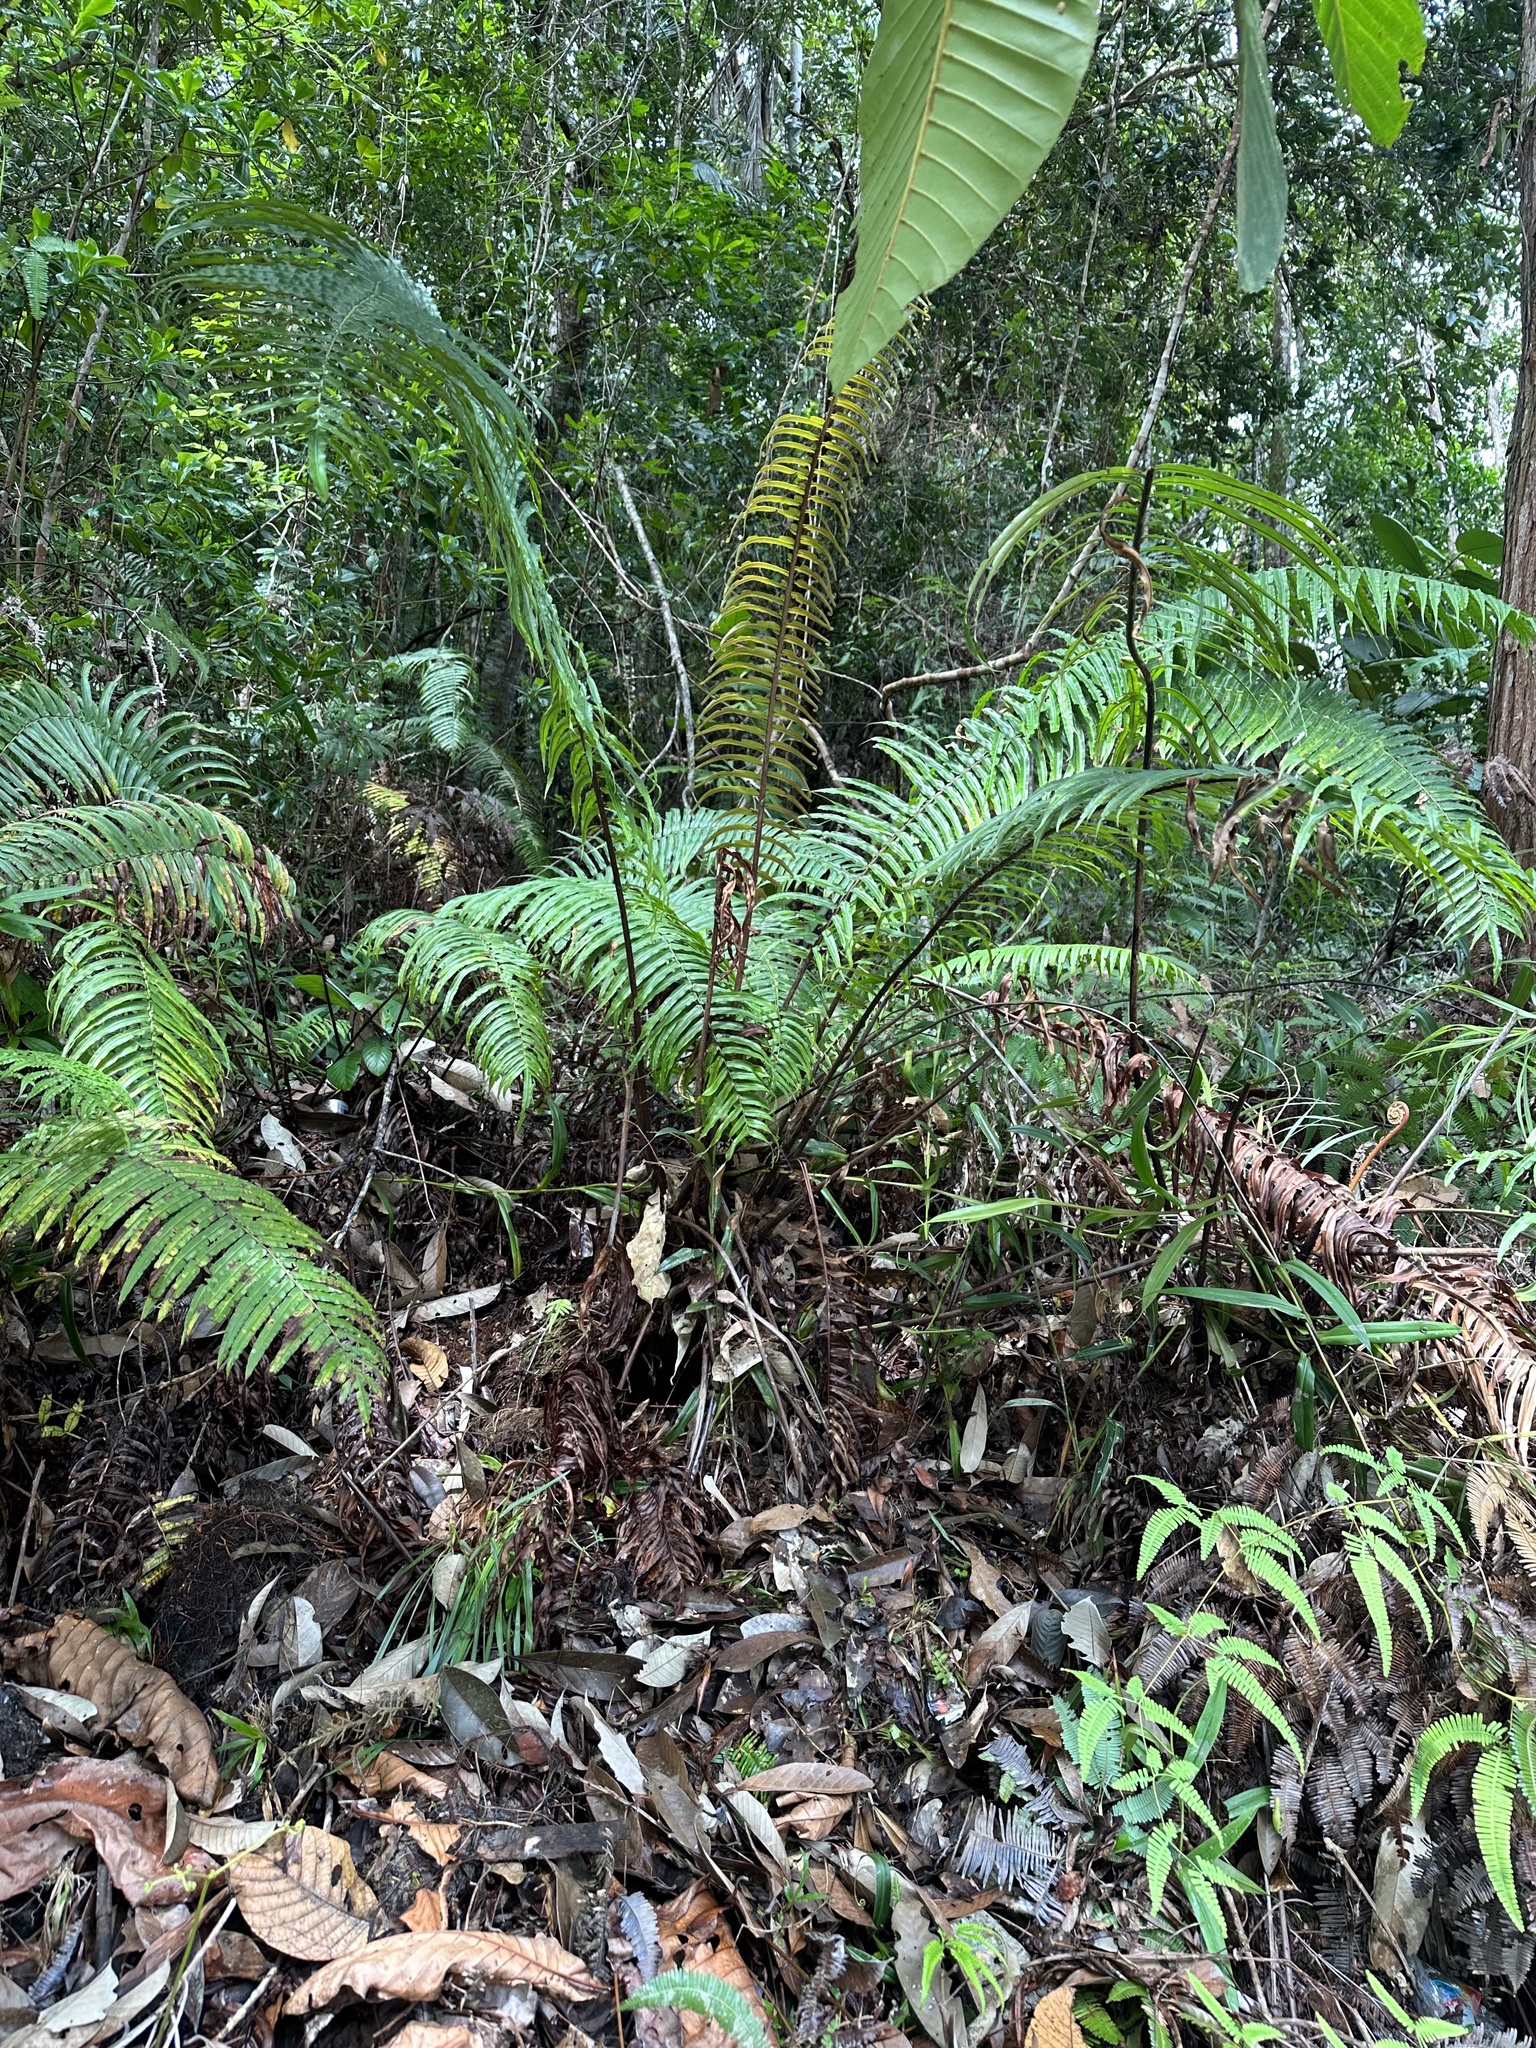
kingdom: Plantae
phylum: Tracheophyta
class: Polypodiopsida
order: Polypodiales
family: Blechnaceae
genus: Blechnopsis
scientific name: Blechnopsis orientalis
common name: Oriental blechnum
